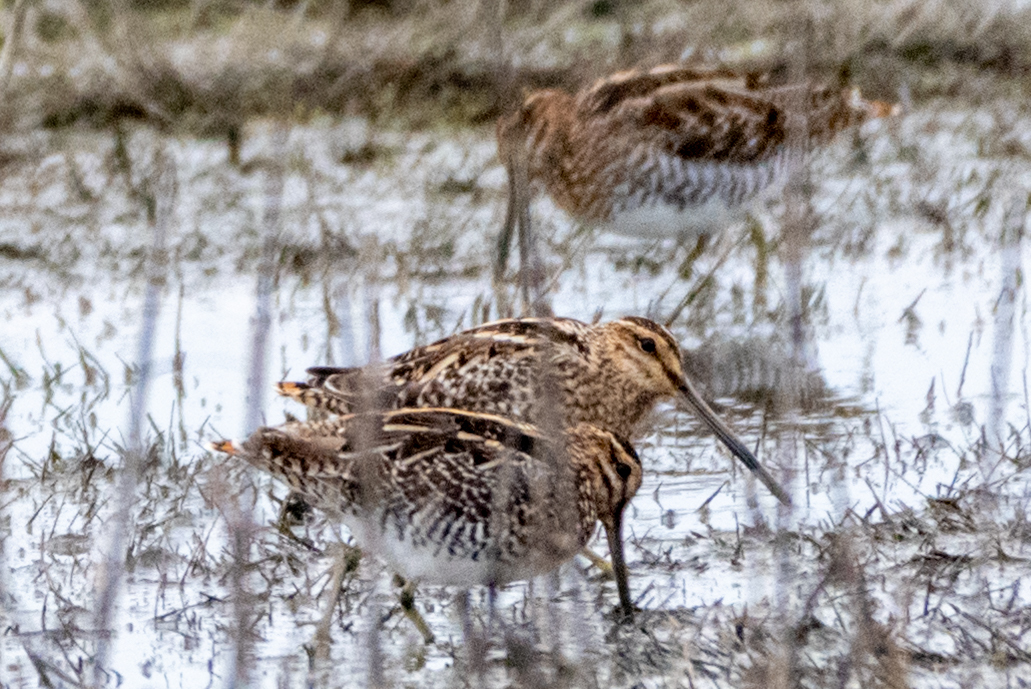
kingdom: Animalia
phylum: Chordata
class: Aves
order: Charadriiformes
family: Scolopacidae
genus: Gallinago
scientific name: Gallinago delicata
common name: Wilson's snipe
